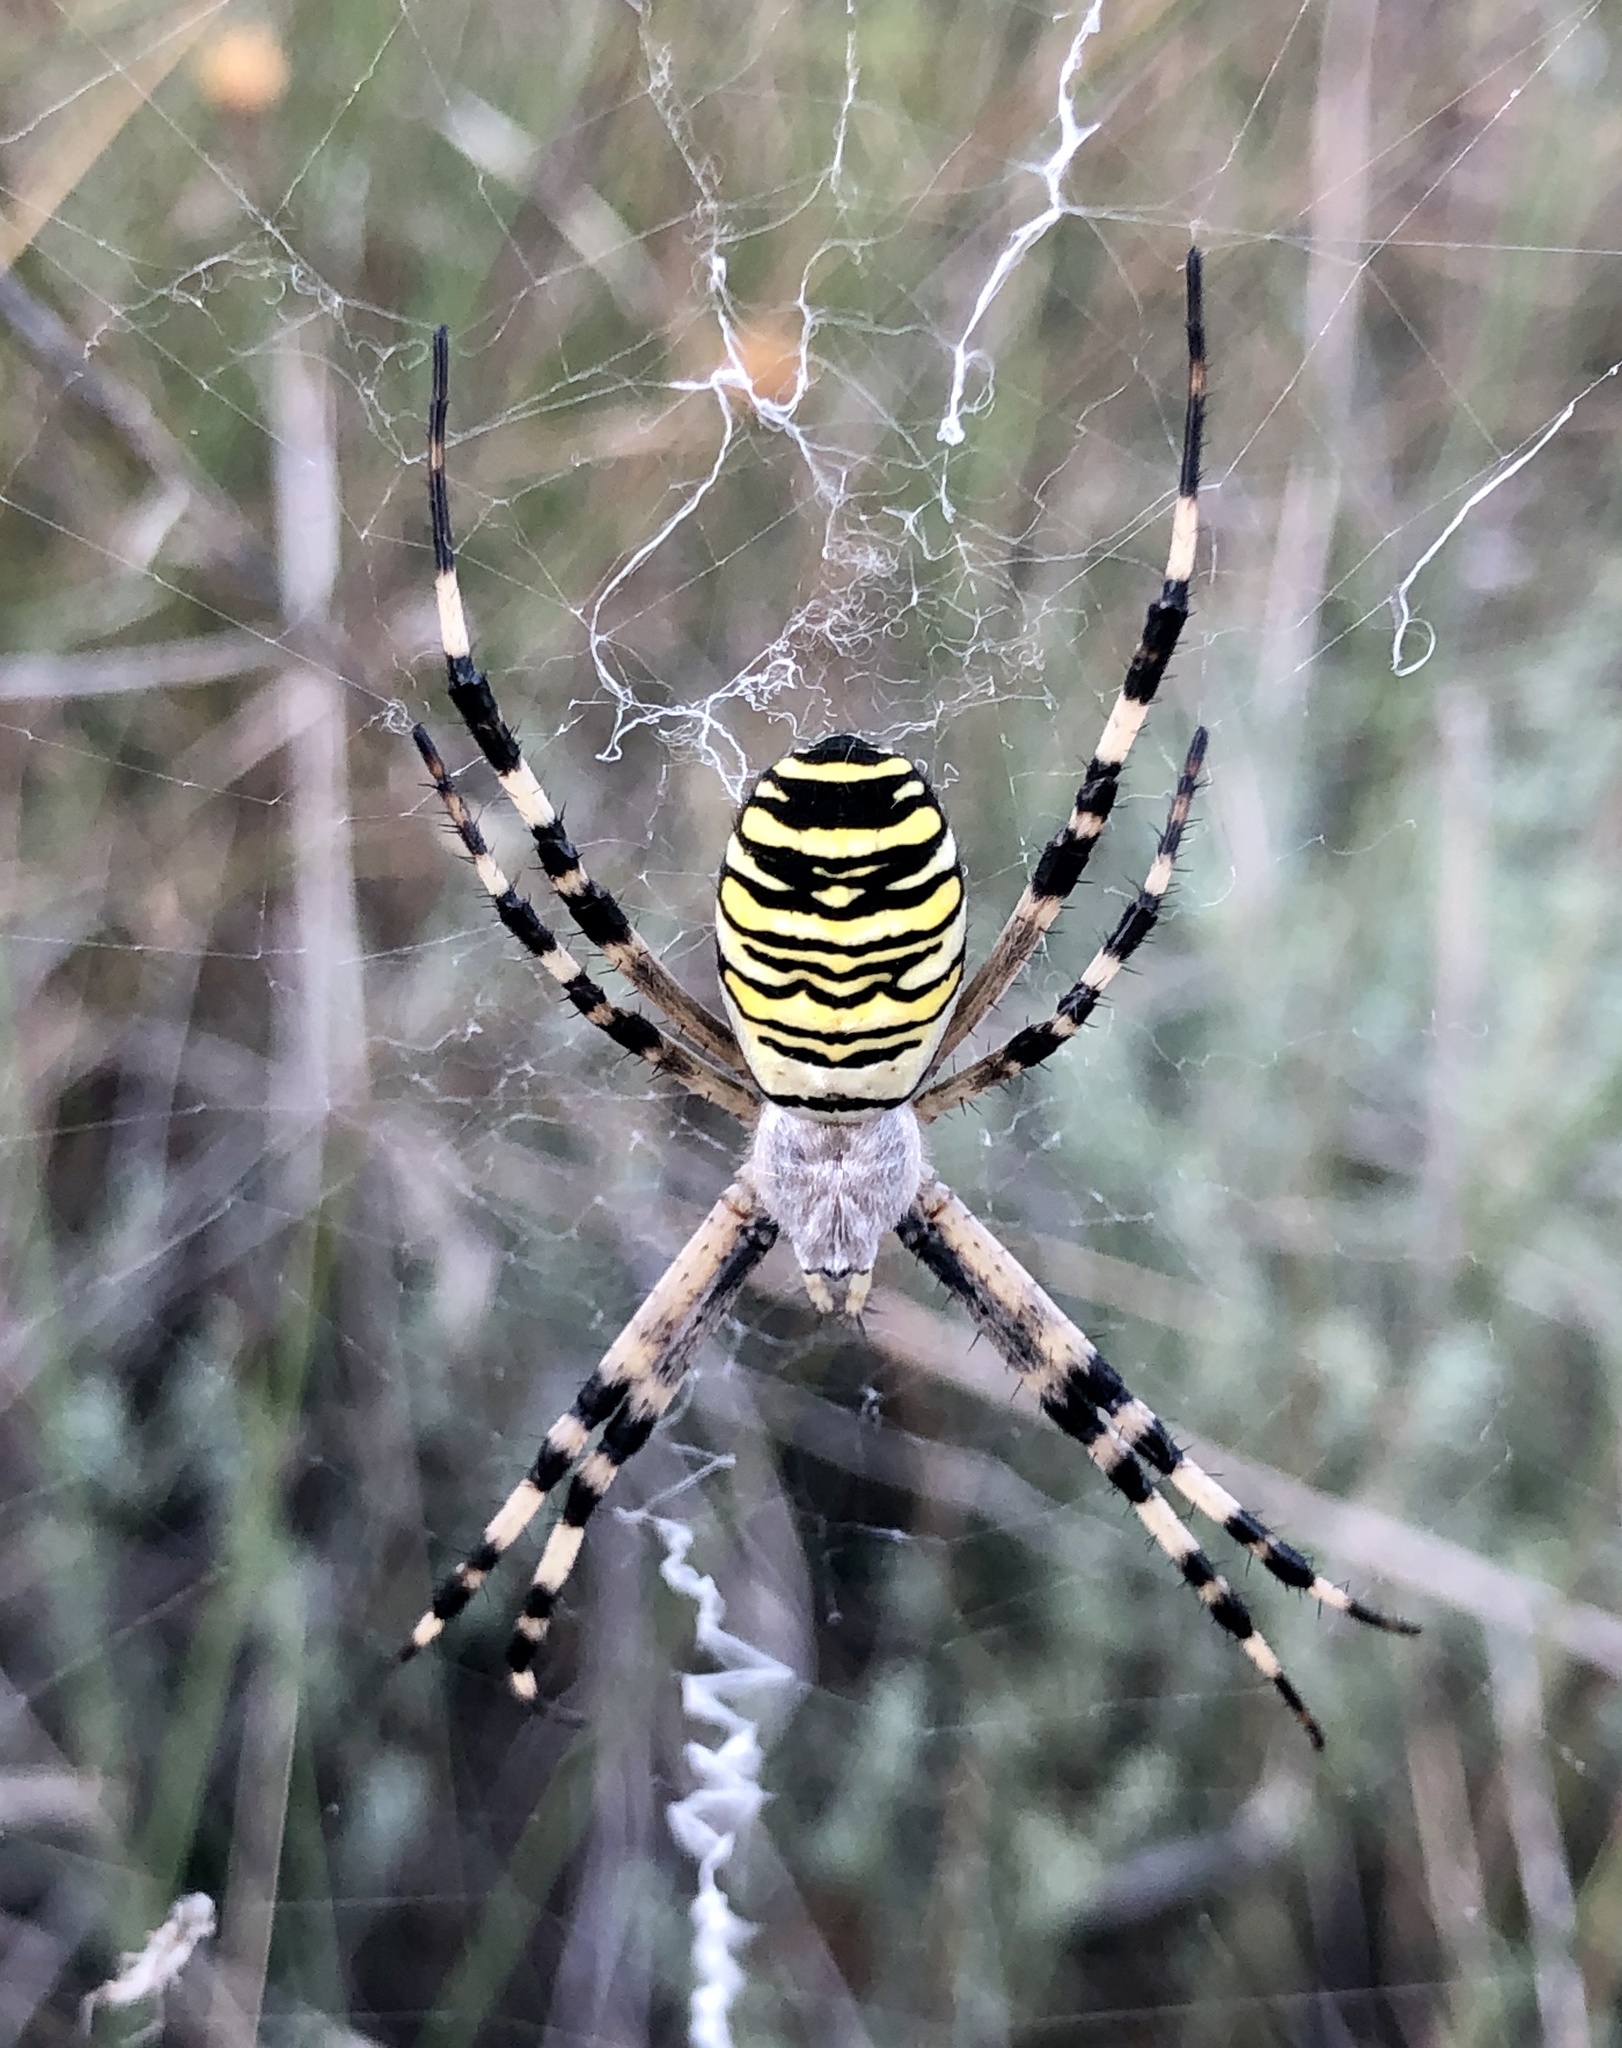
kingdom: Animalia
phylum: Arthropoda
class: Arachnida
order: Araneae
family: Araneidae
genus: Argiope
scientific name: Argiope bruennichi
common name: Wasp spider
